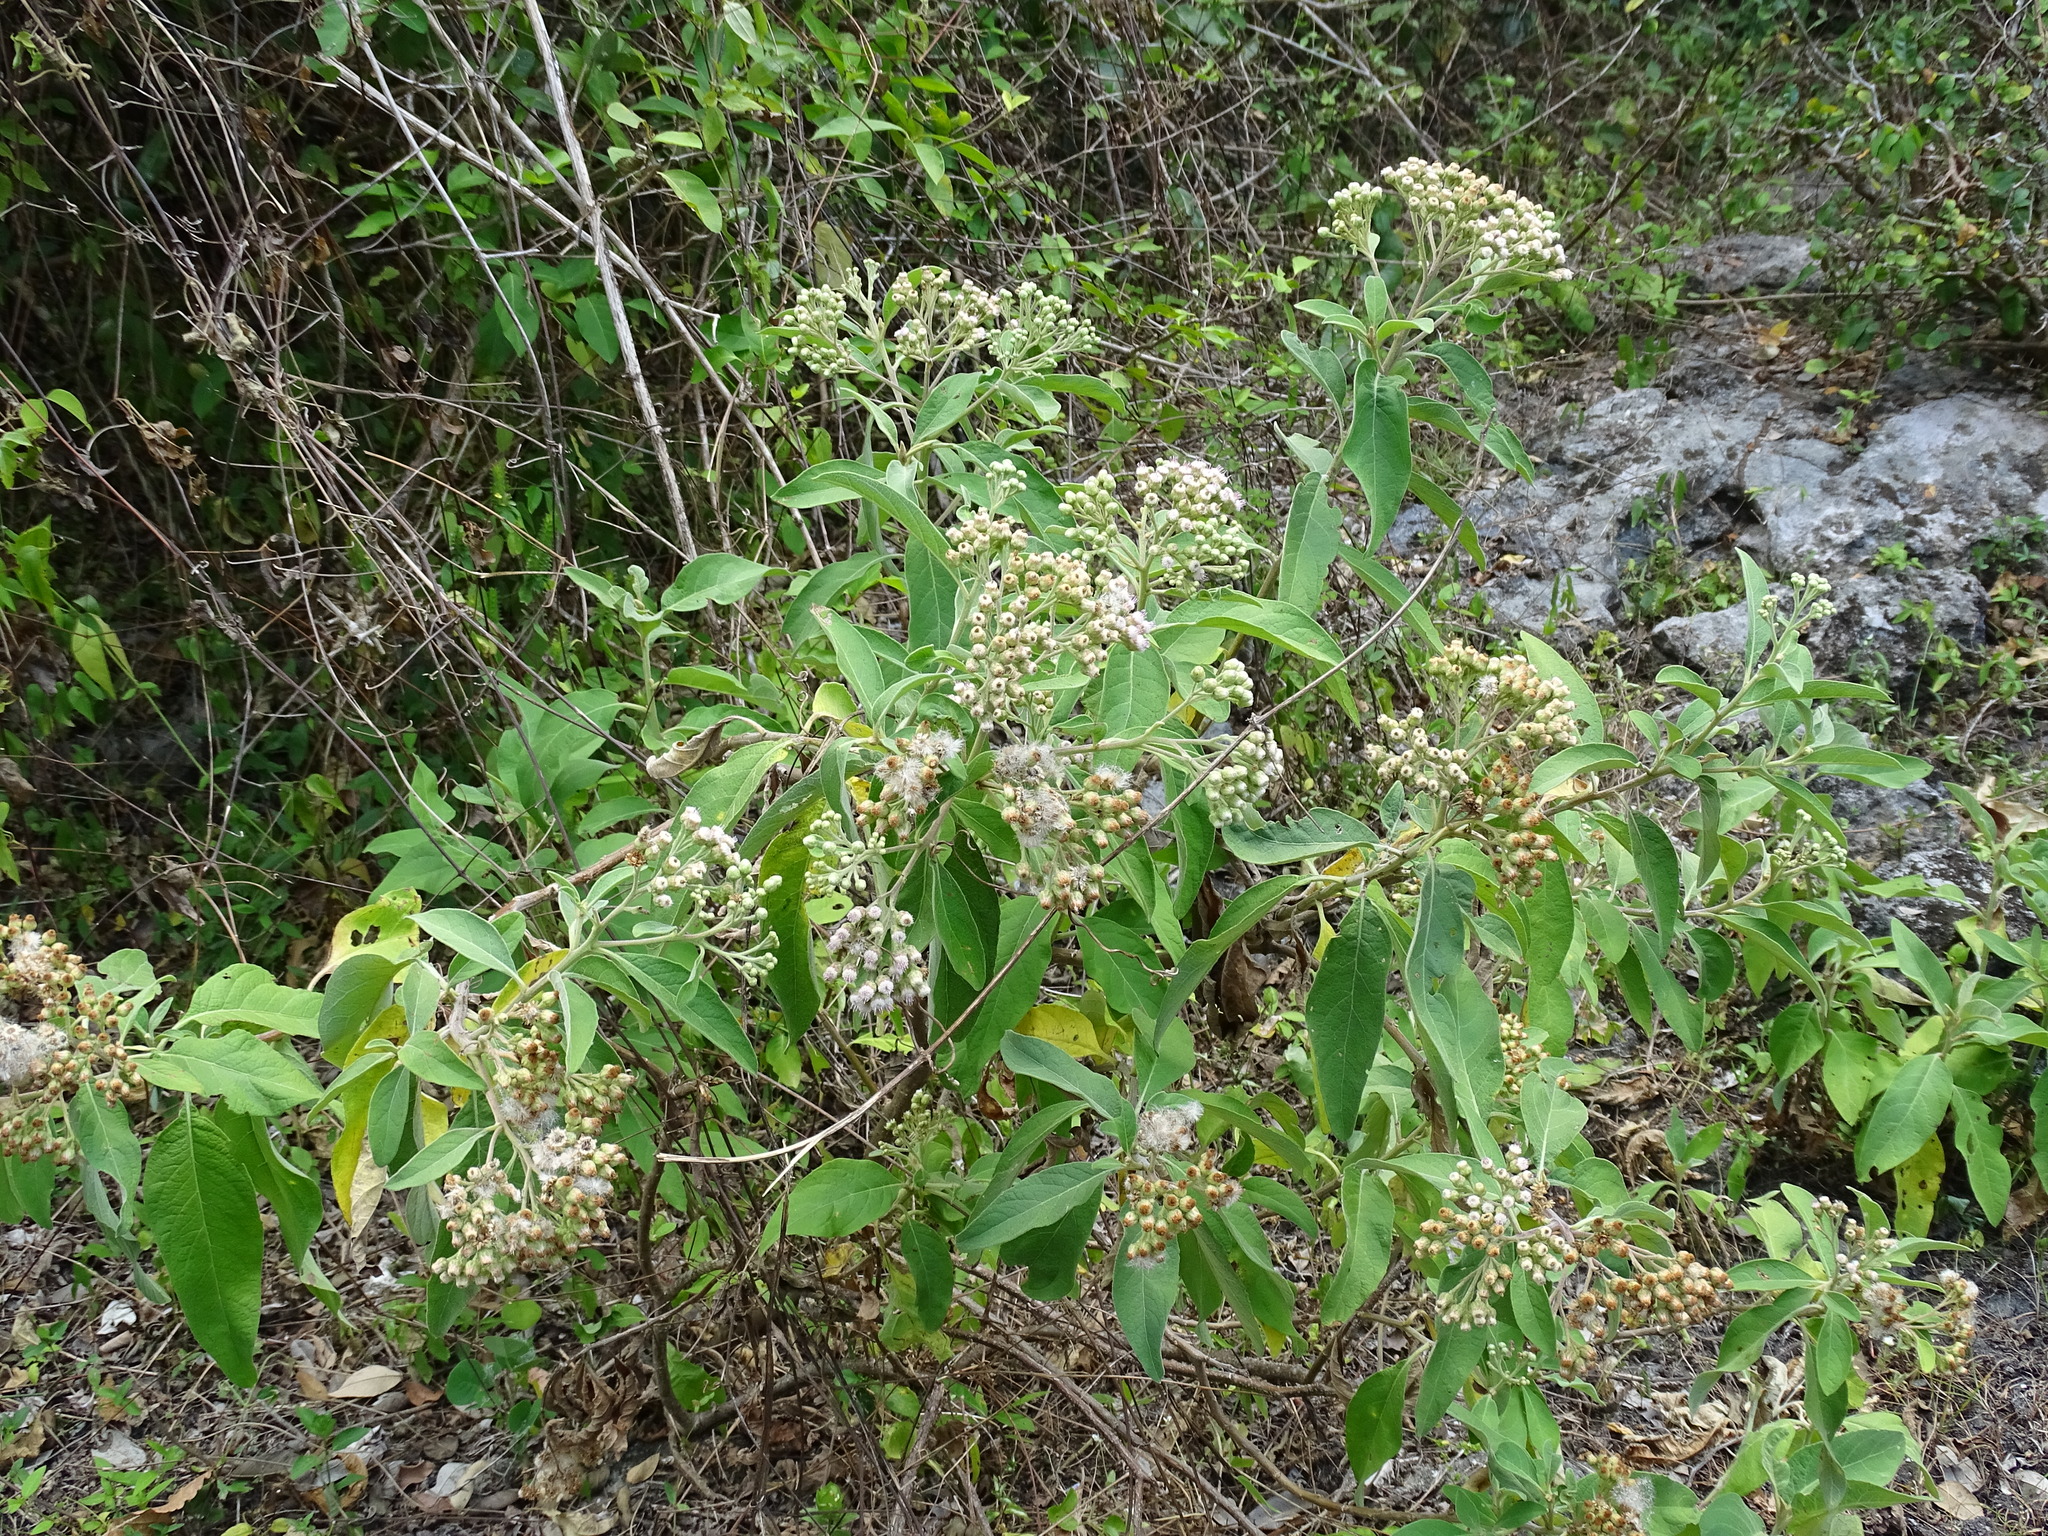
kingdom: Plantae
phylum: Tracheophyta
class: Magnoliopsida
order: Asterales
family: Asteraceae
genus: Pluchea
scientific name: Pluchea carolinensis
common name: Marsh fleabane
